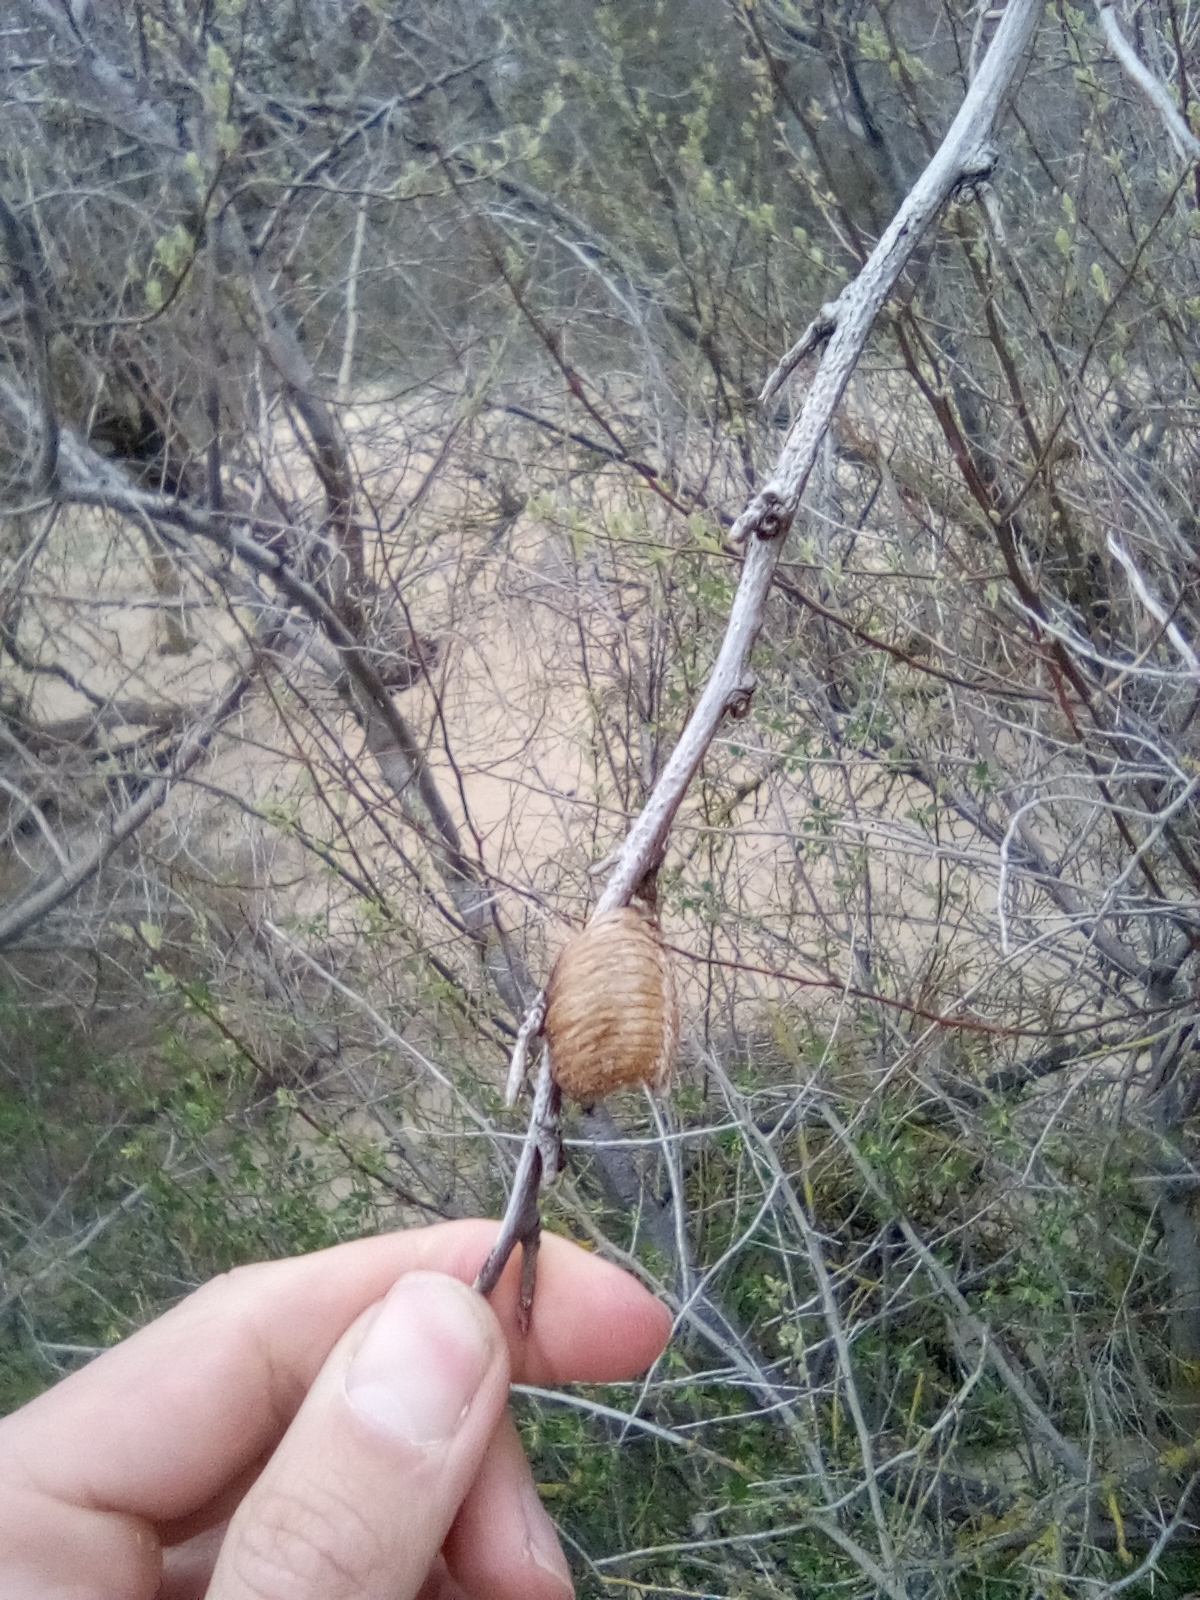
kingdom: Animalia
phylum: Arthropoda
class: Insecta
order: Mantodea
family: Mantidae
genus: Hierodula
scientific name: Hierodula transcaucasica
